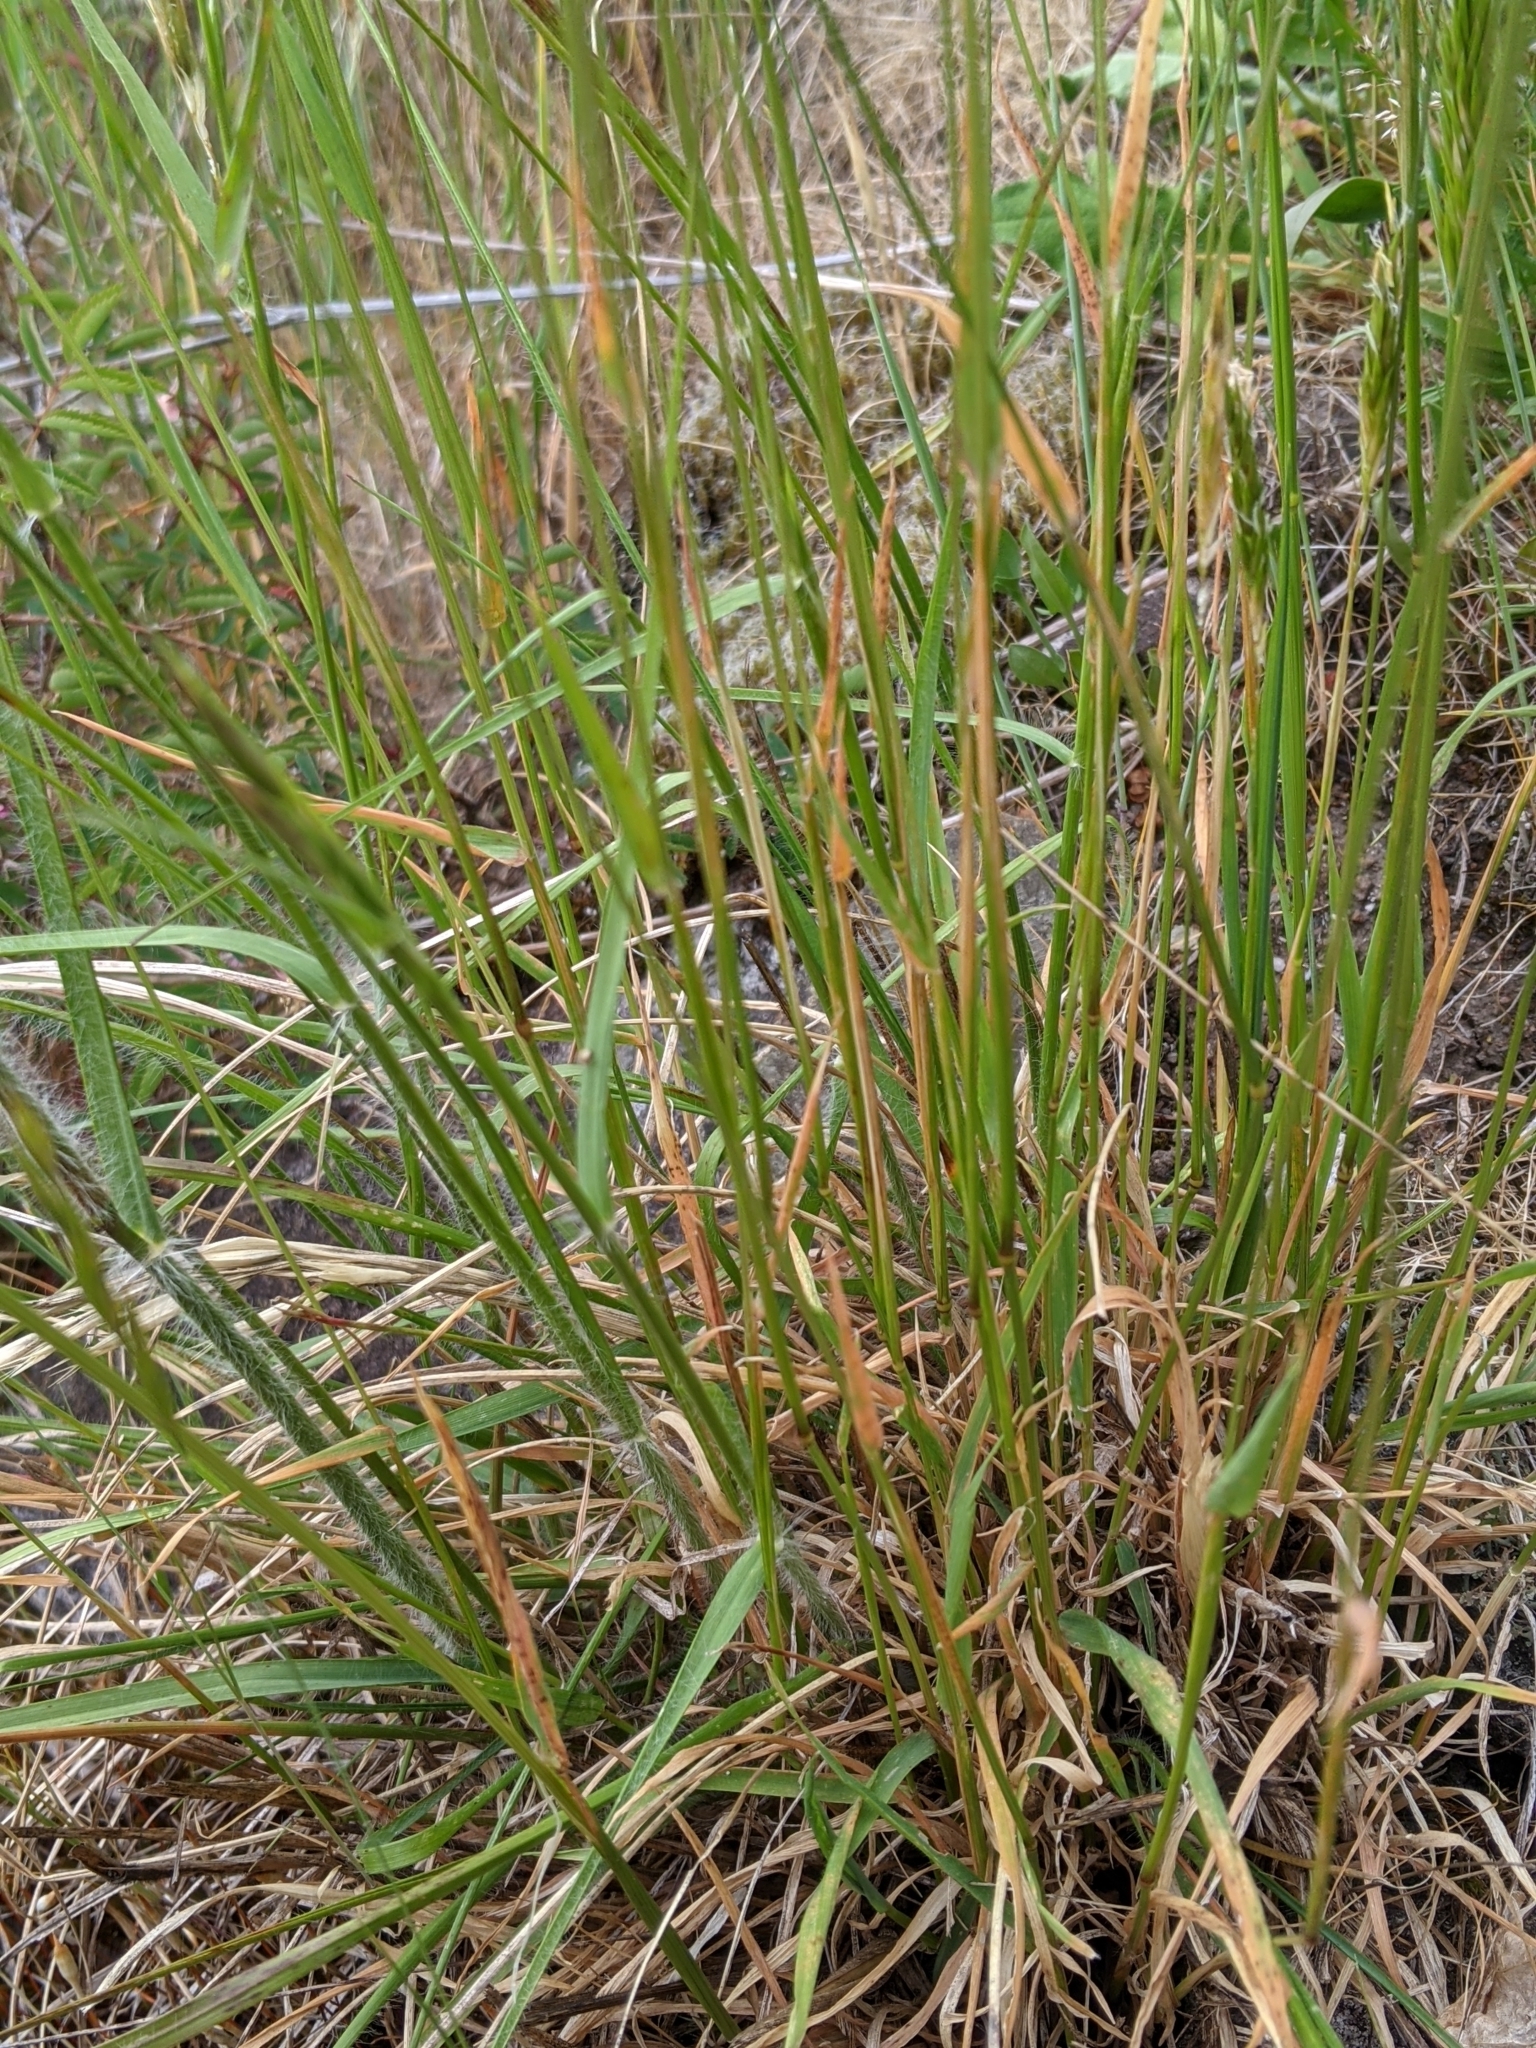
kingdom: Plantae
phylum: Tracheophyta
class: Liliopsida
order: Poales
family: Poaceae
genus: Anthoxanthum
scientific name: Anthoxanthum odoratum
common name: Sweet vernalgrass
